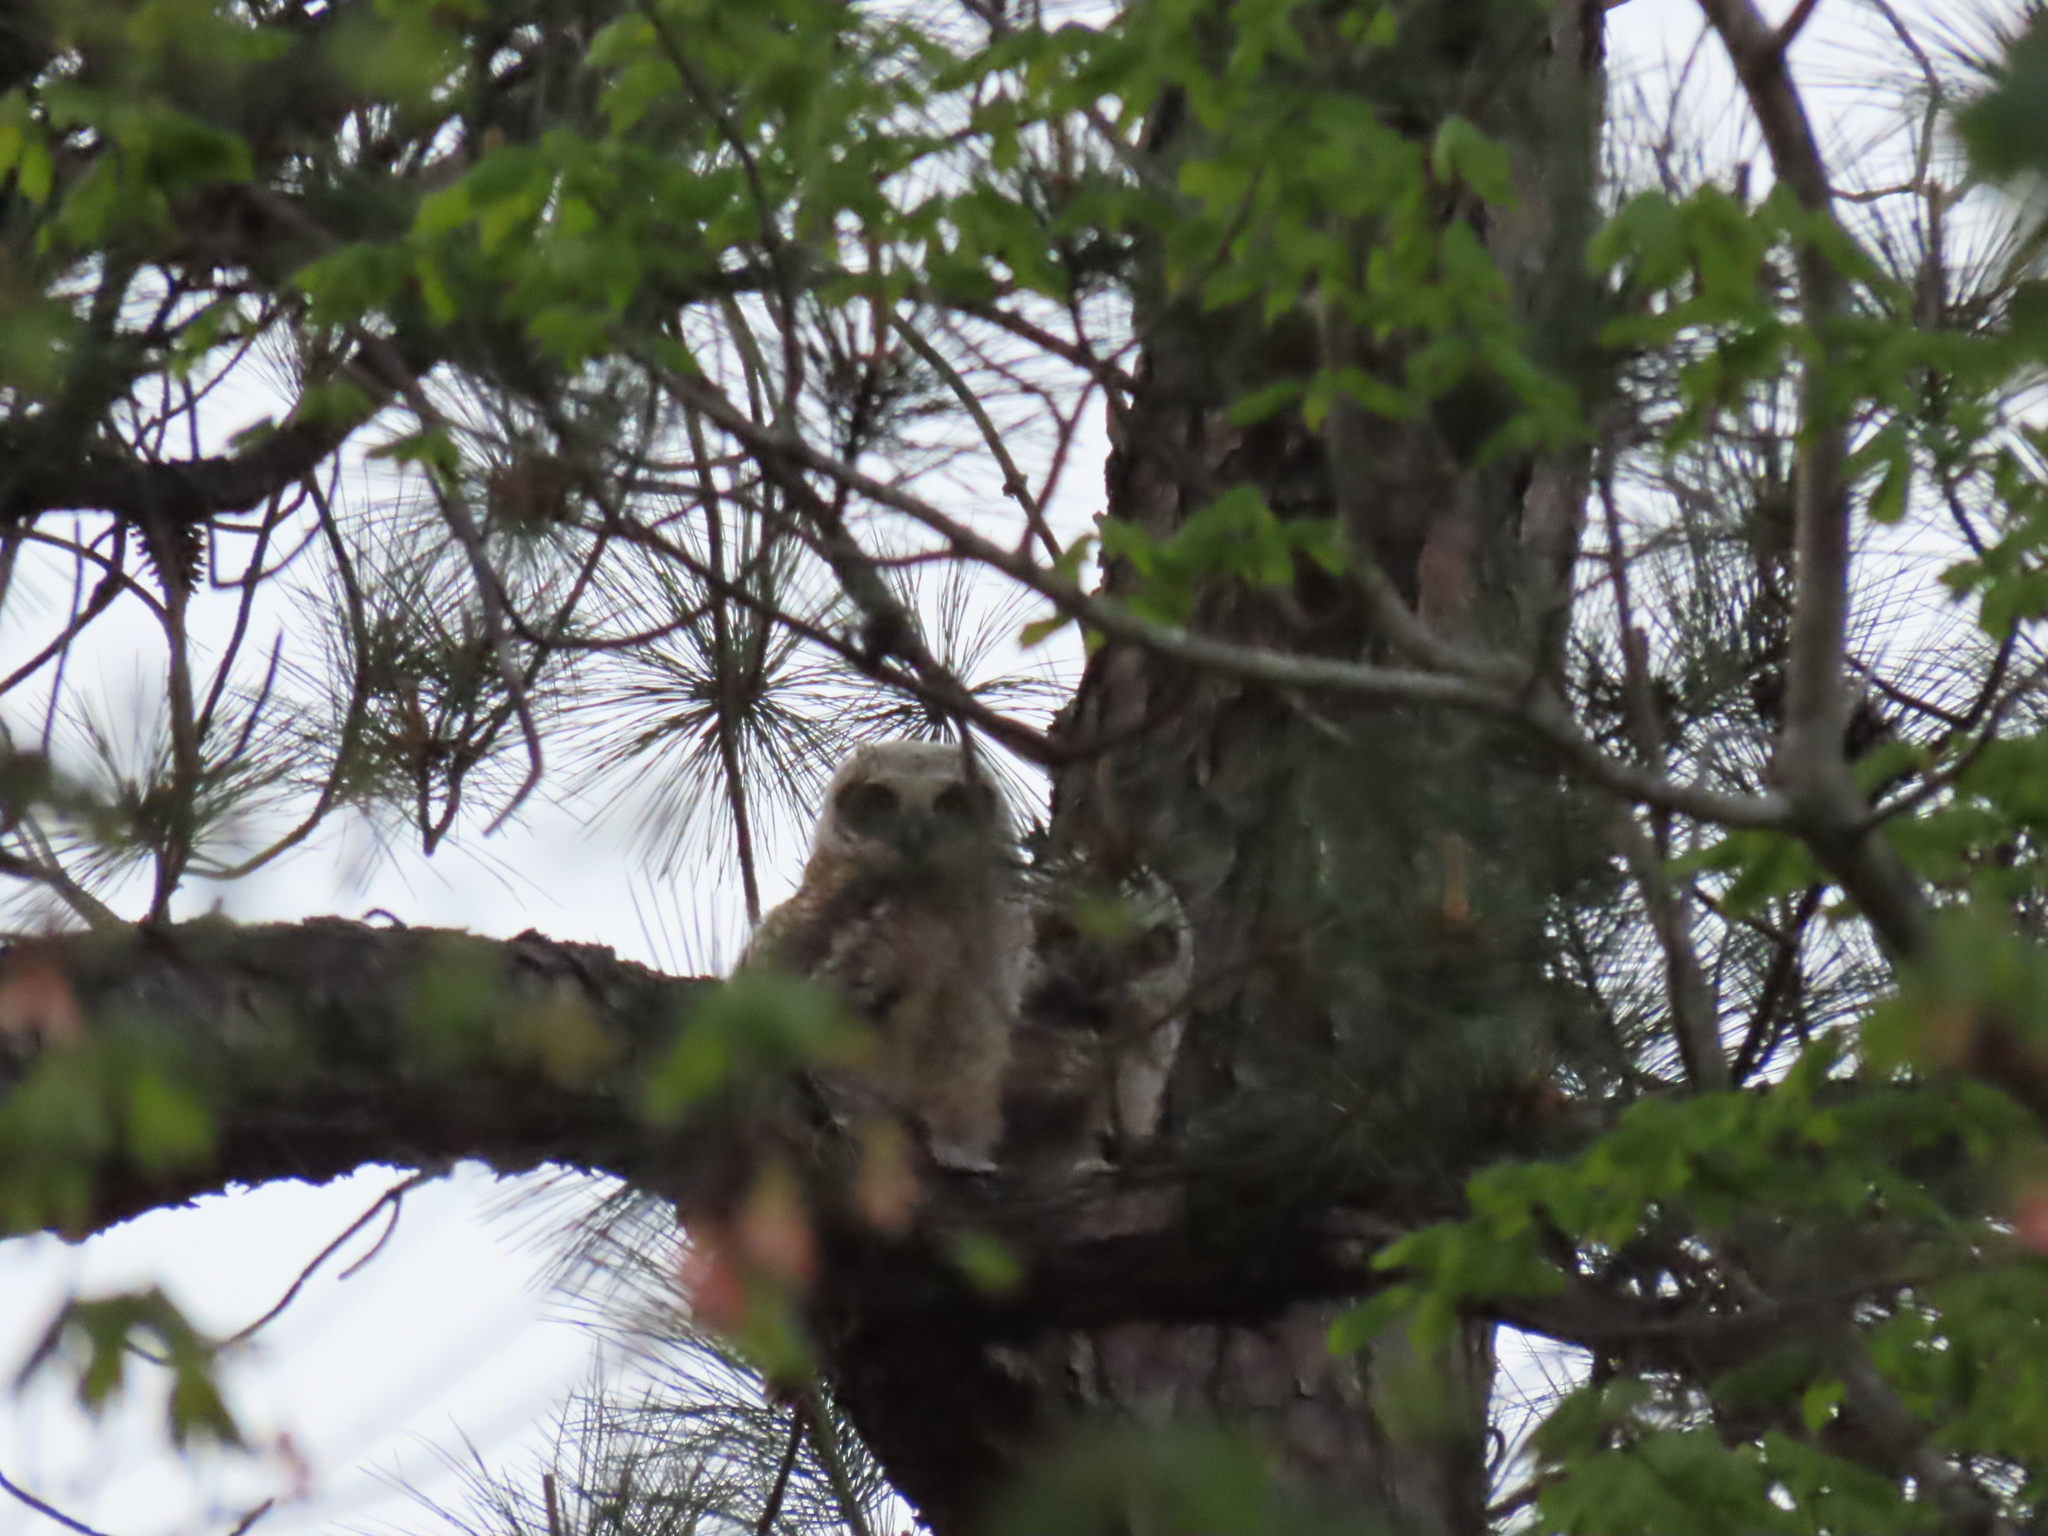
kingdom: Animalia
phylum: Chordata
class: Aves
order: Strigiformes
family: Strigidae
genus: Bubo
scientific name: Bubo virginianus
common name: Great horned owl
